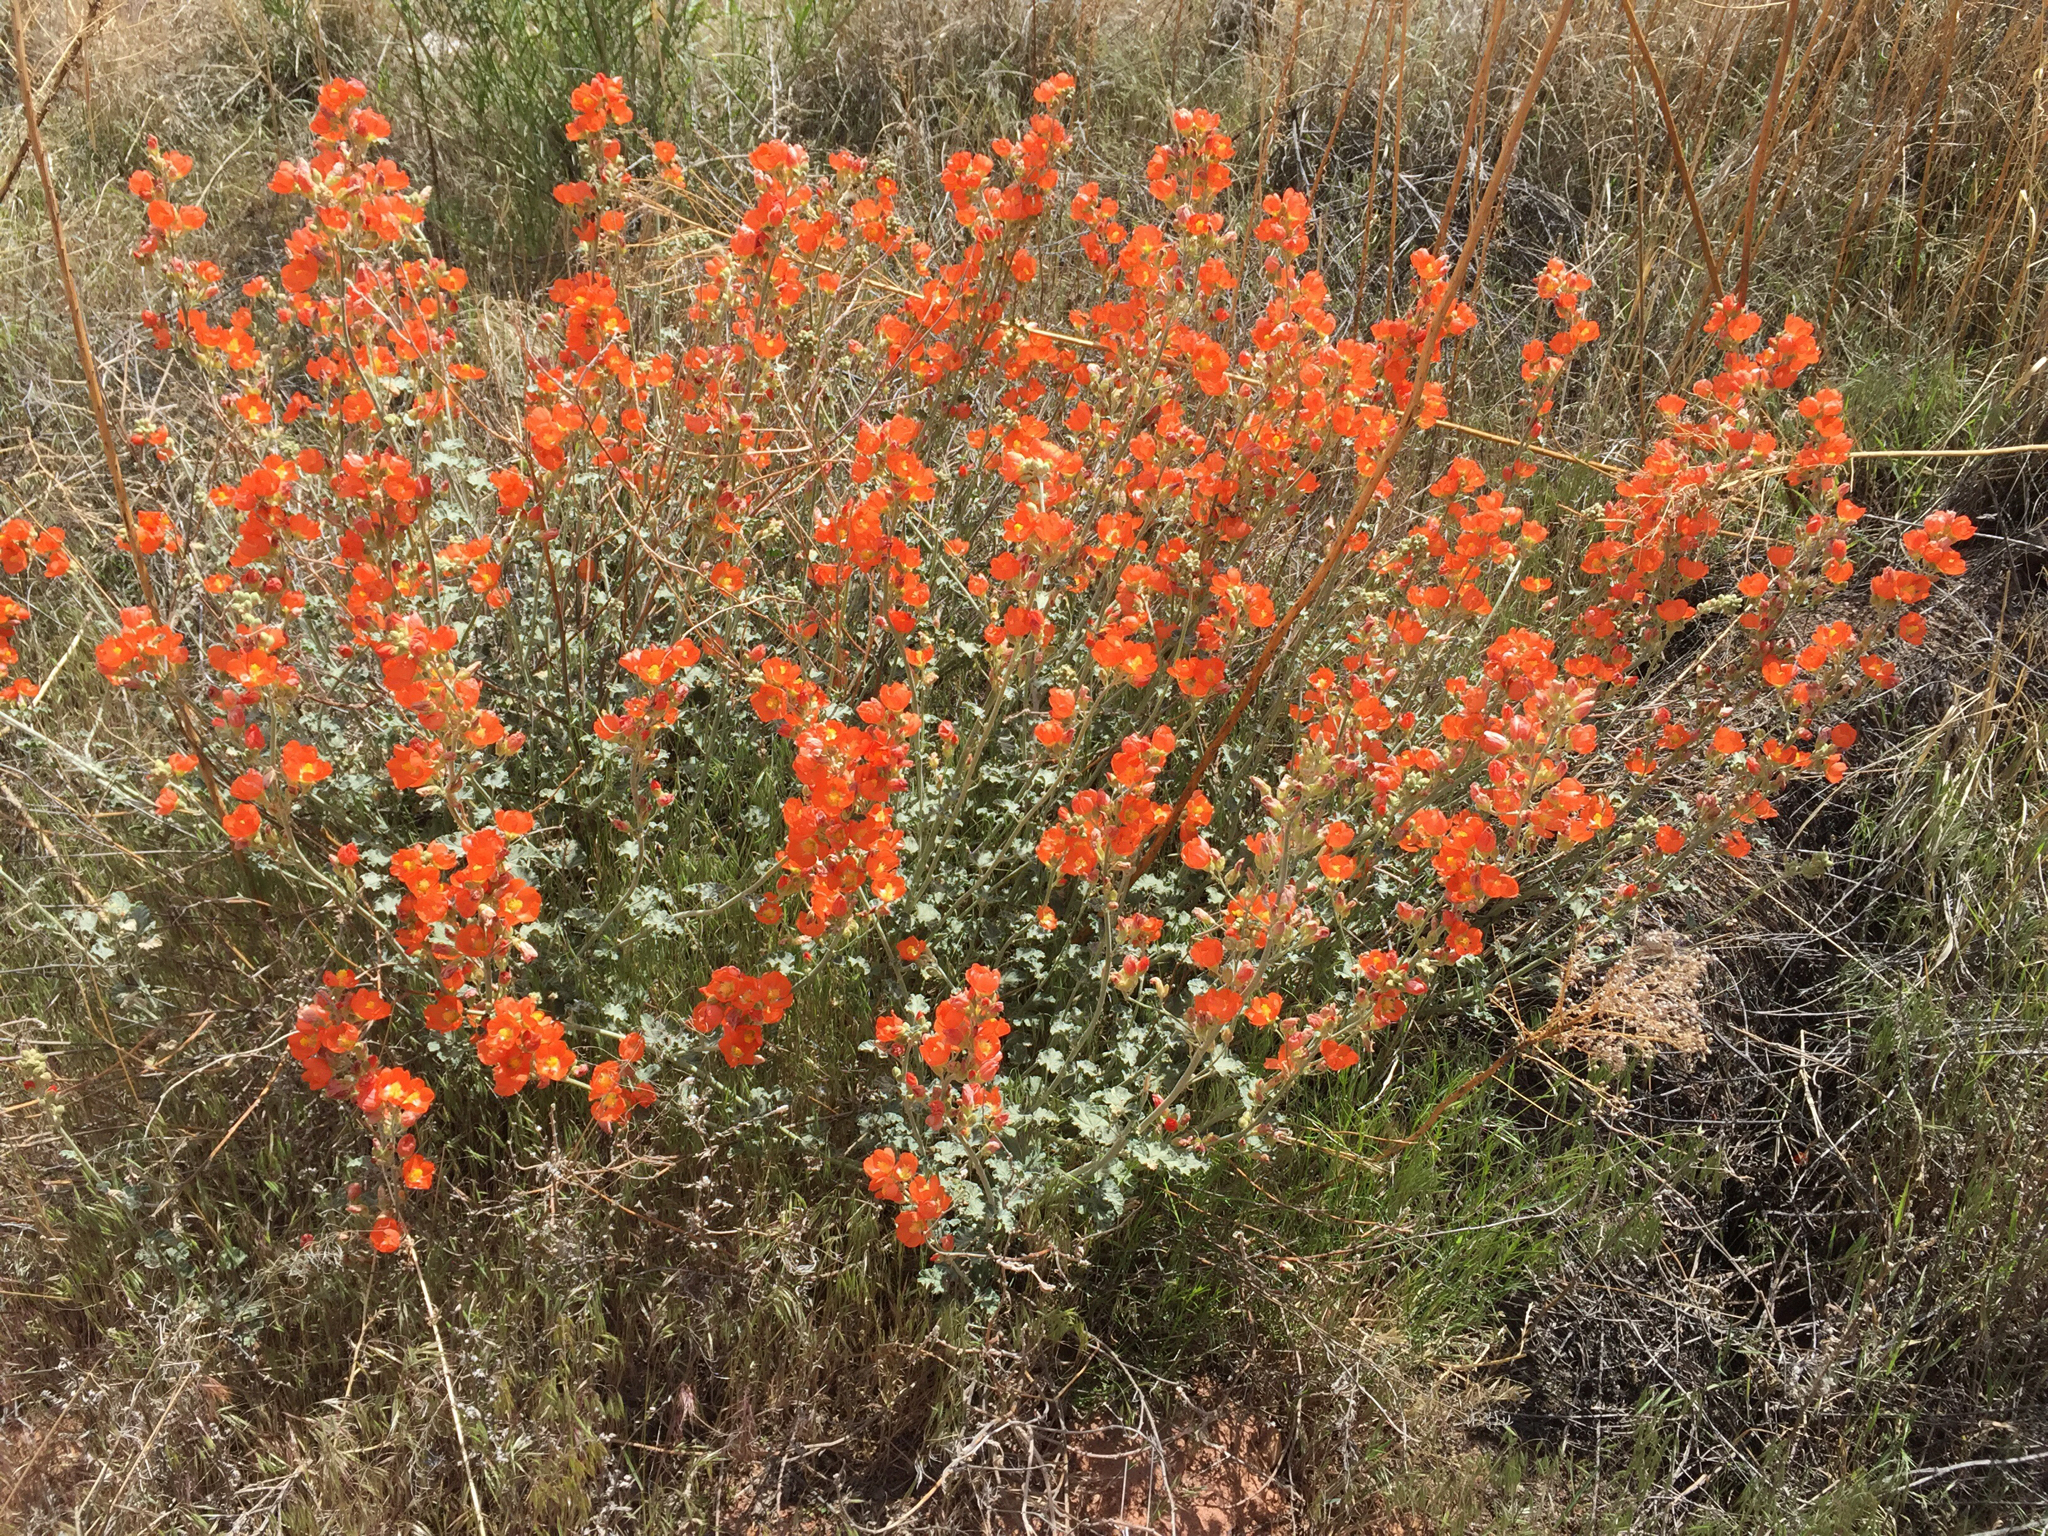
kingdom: Plantae
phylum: Tracheophyta
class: Magnoliopsida
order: Malvales
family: Malvaceae
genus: Sphaeralcea
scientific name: Sphaeralcea parvifolia
